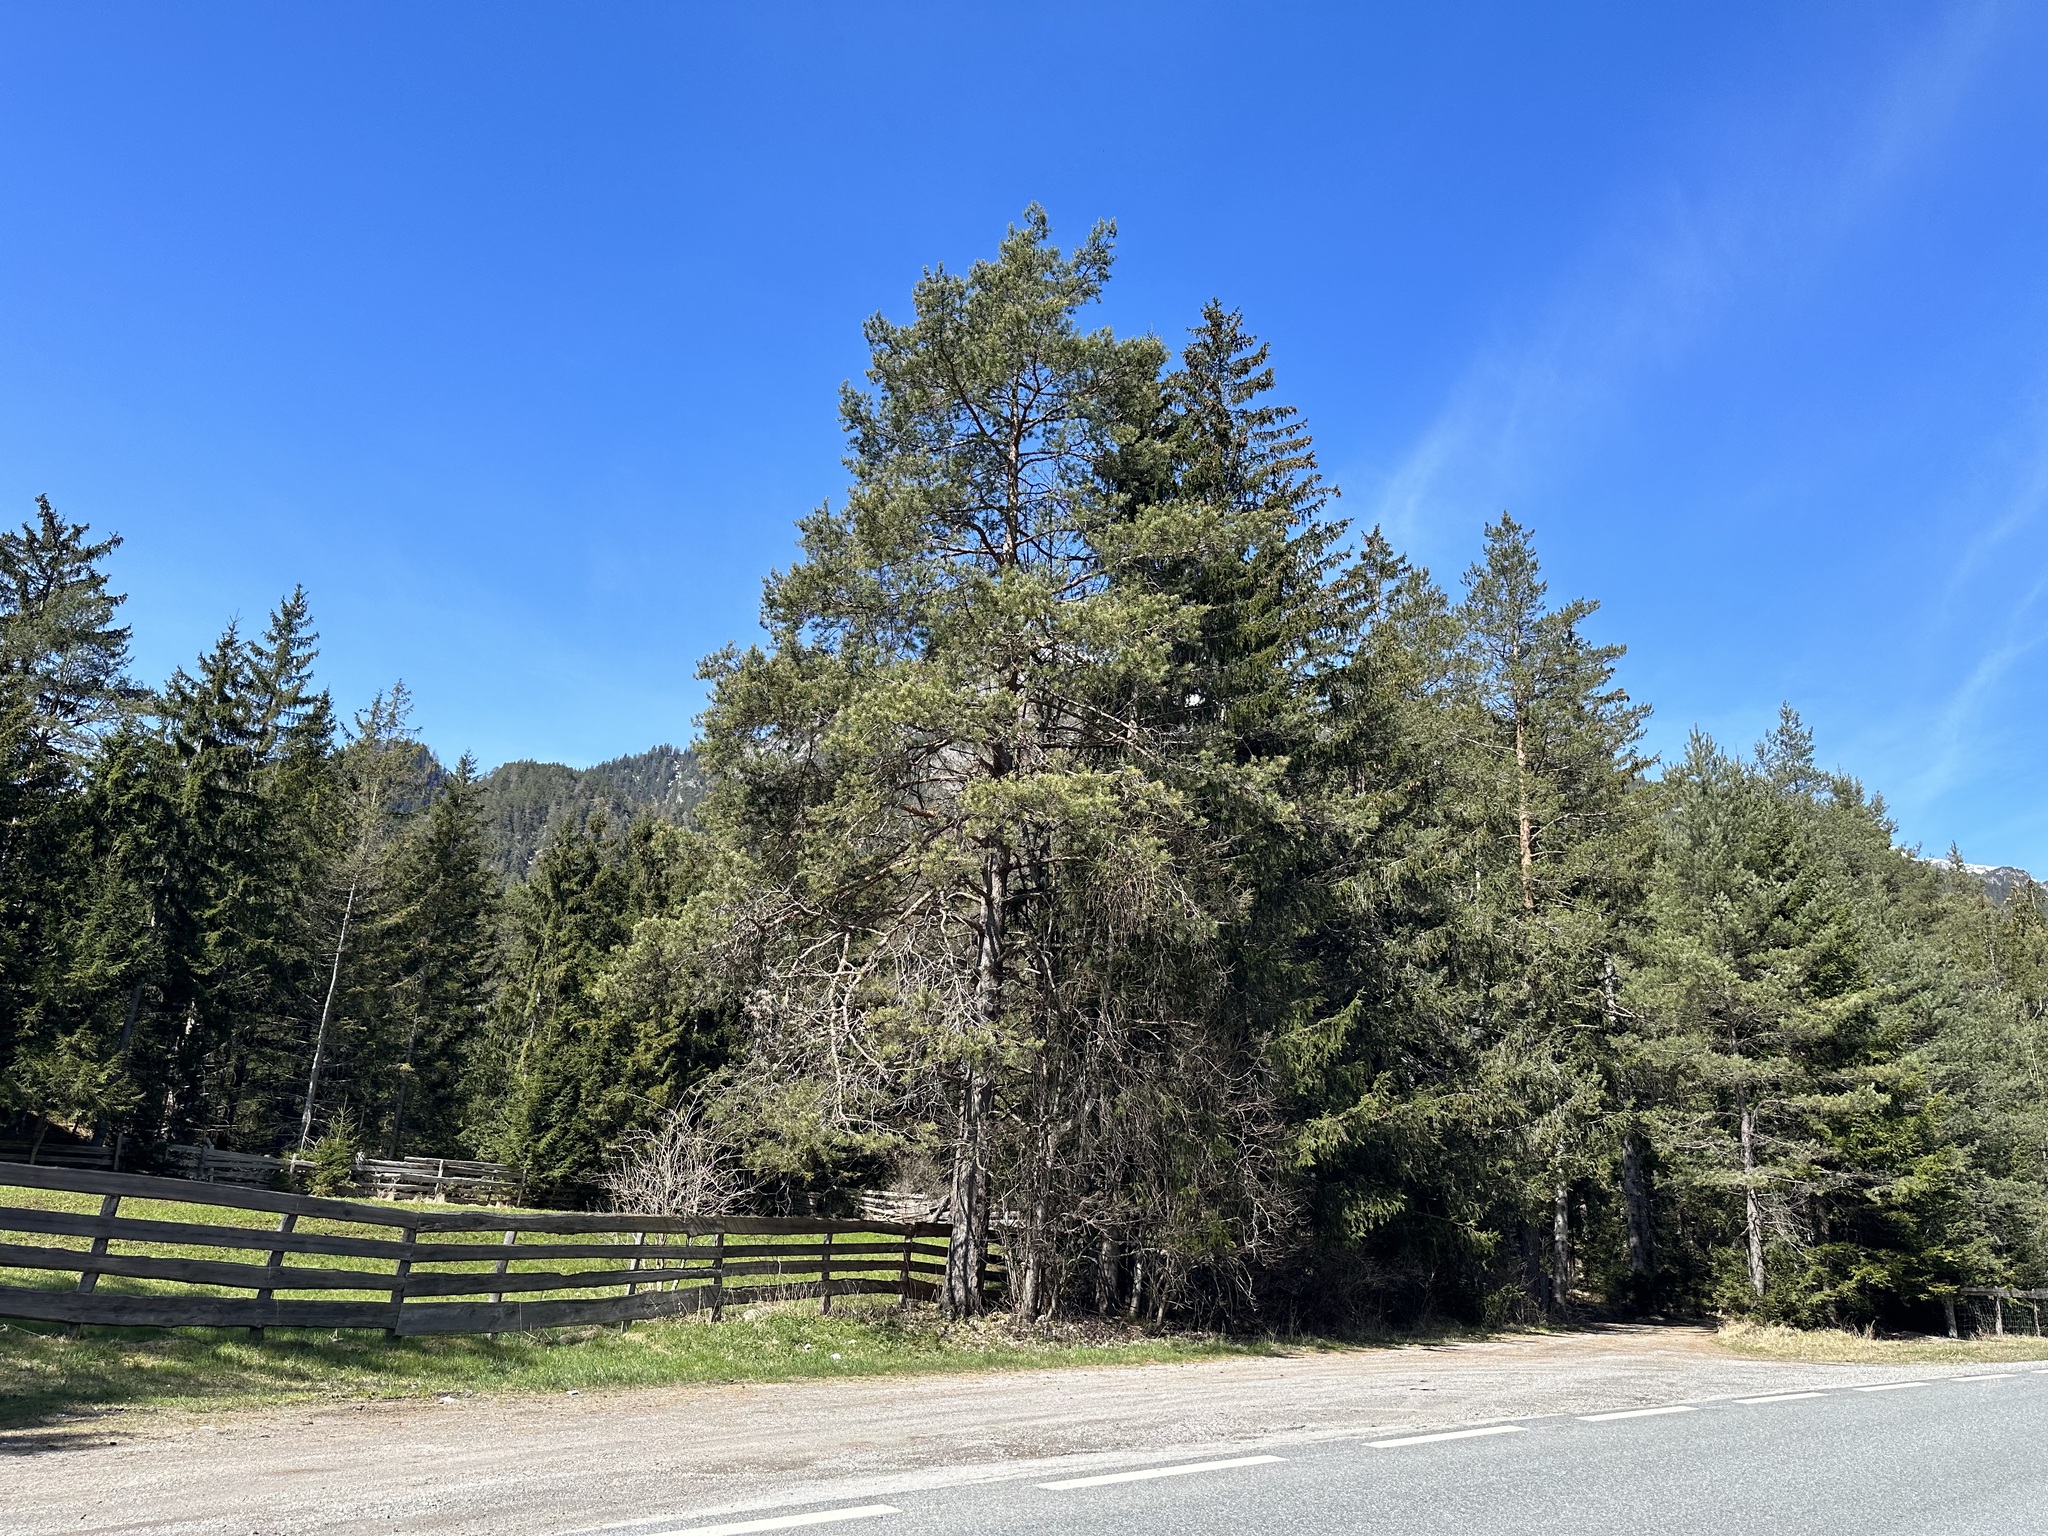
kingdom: Plantae
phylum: Tracheophyta
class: Pinopsida
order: Pinales
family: Pinaceae
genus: Pinus
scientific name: Pinus sylvestris
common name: Scots pine
